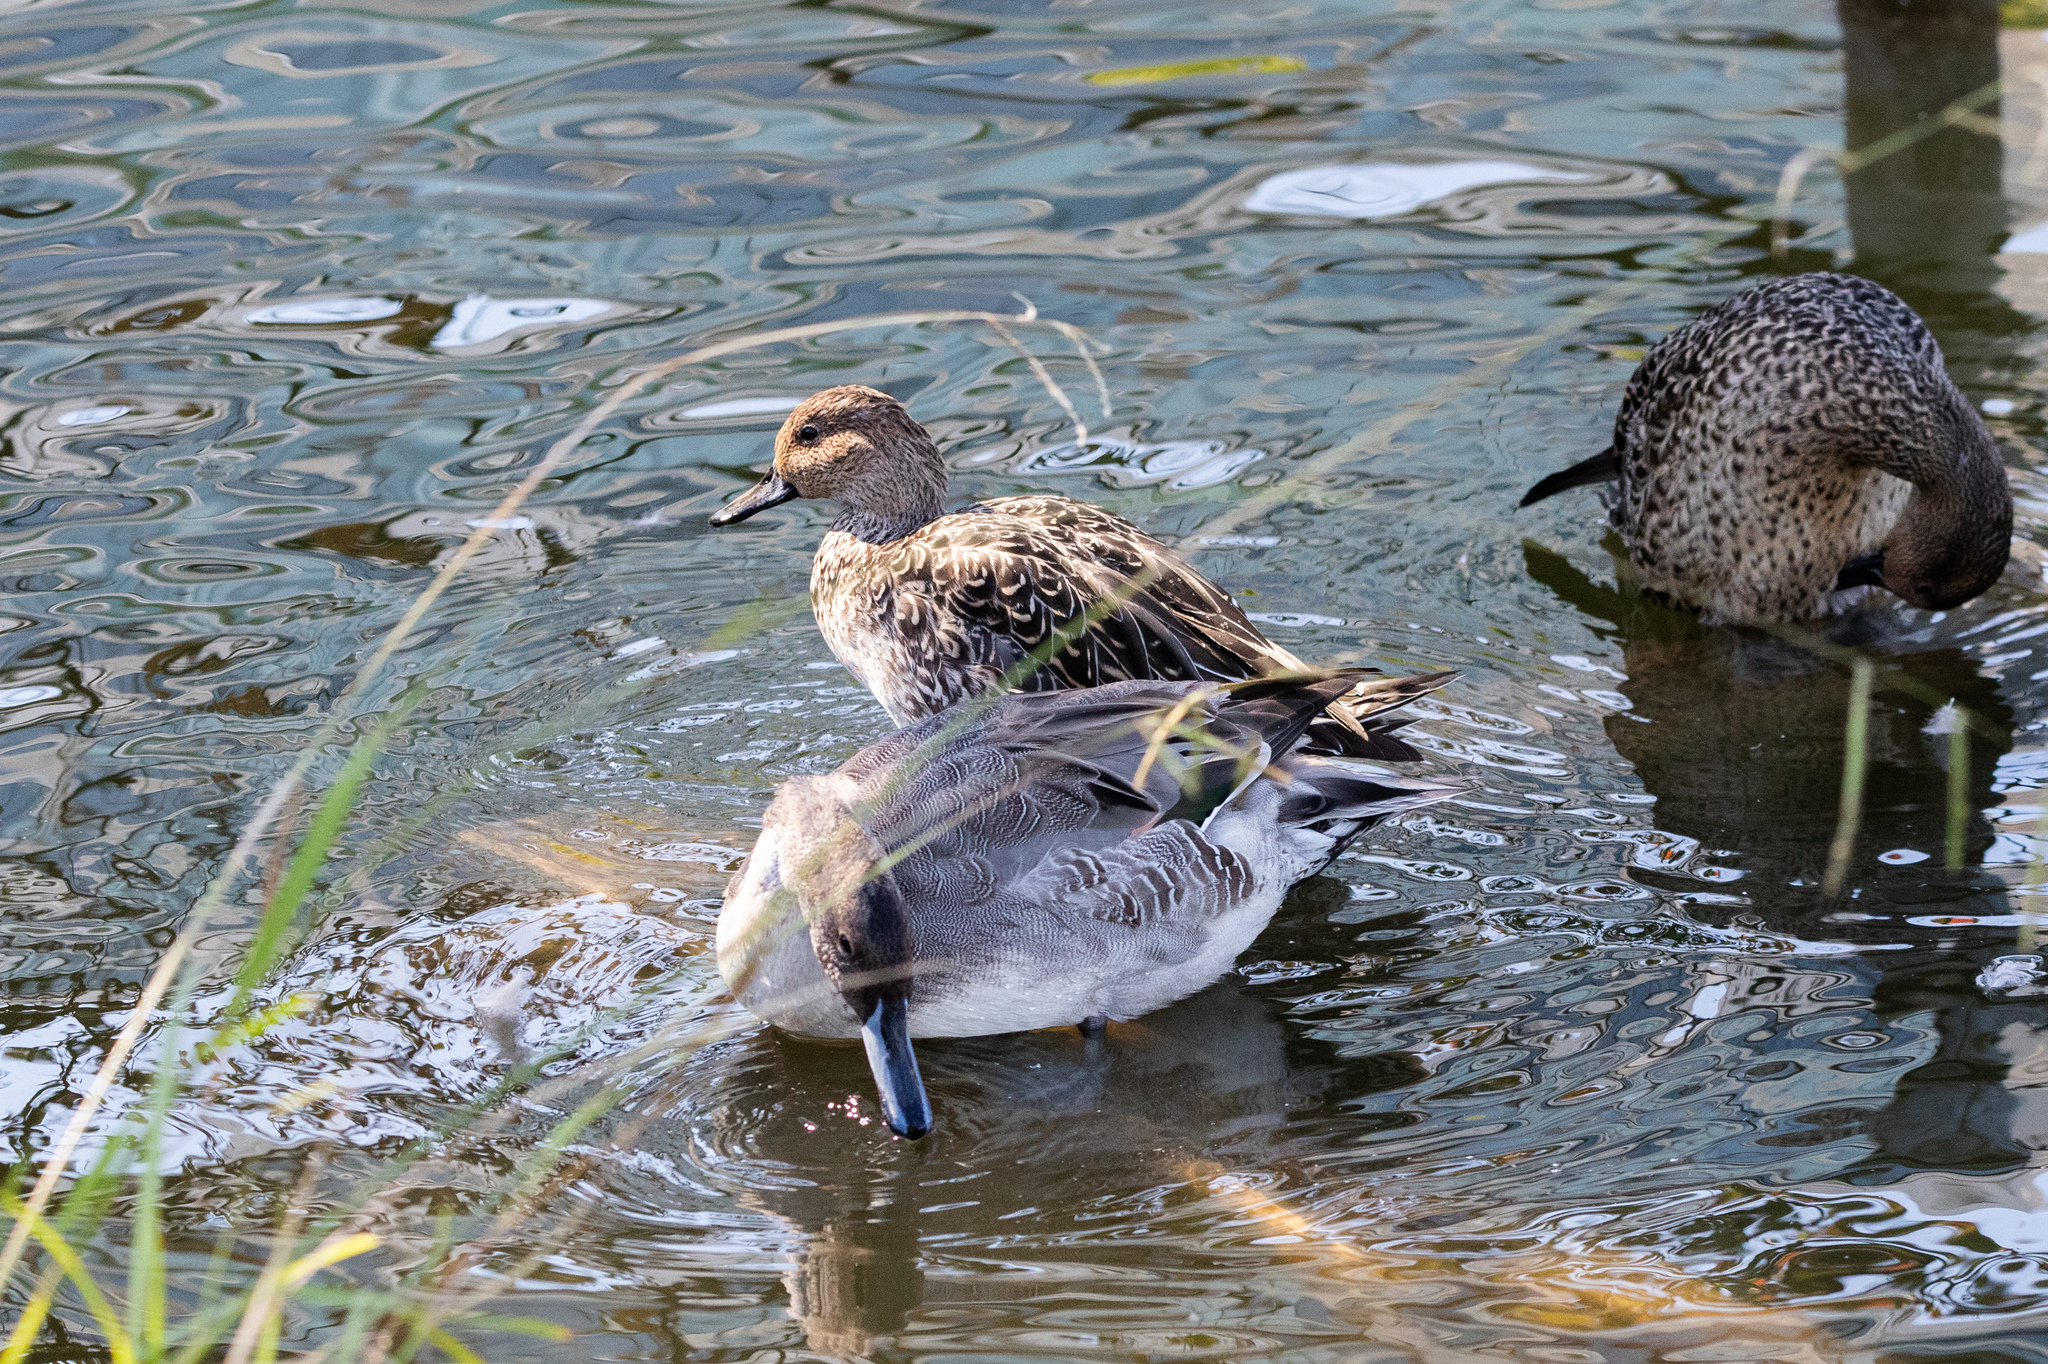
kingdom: Animalia
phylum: Chordata
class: Aves
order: Anseriformes
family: Anatidae
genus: Anas
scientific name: Anas acuta
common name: Northern pintail
